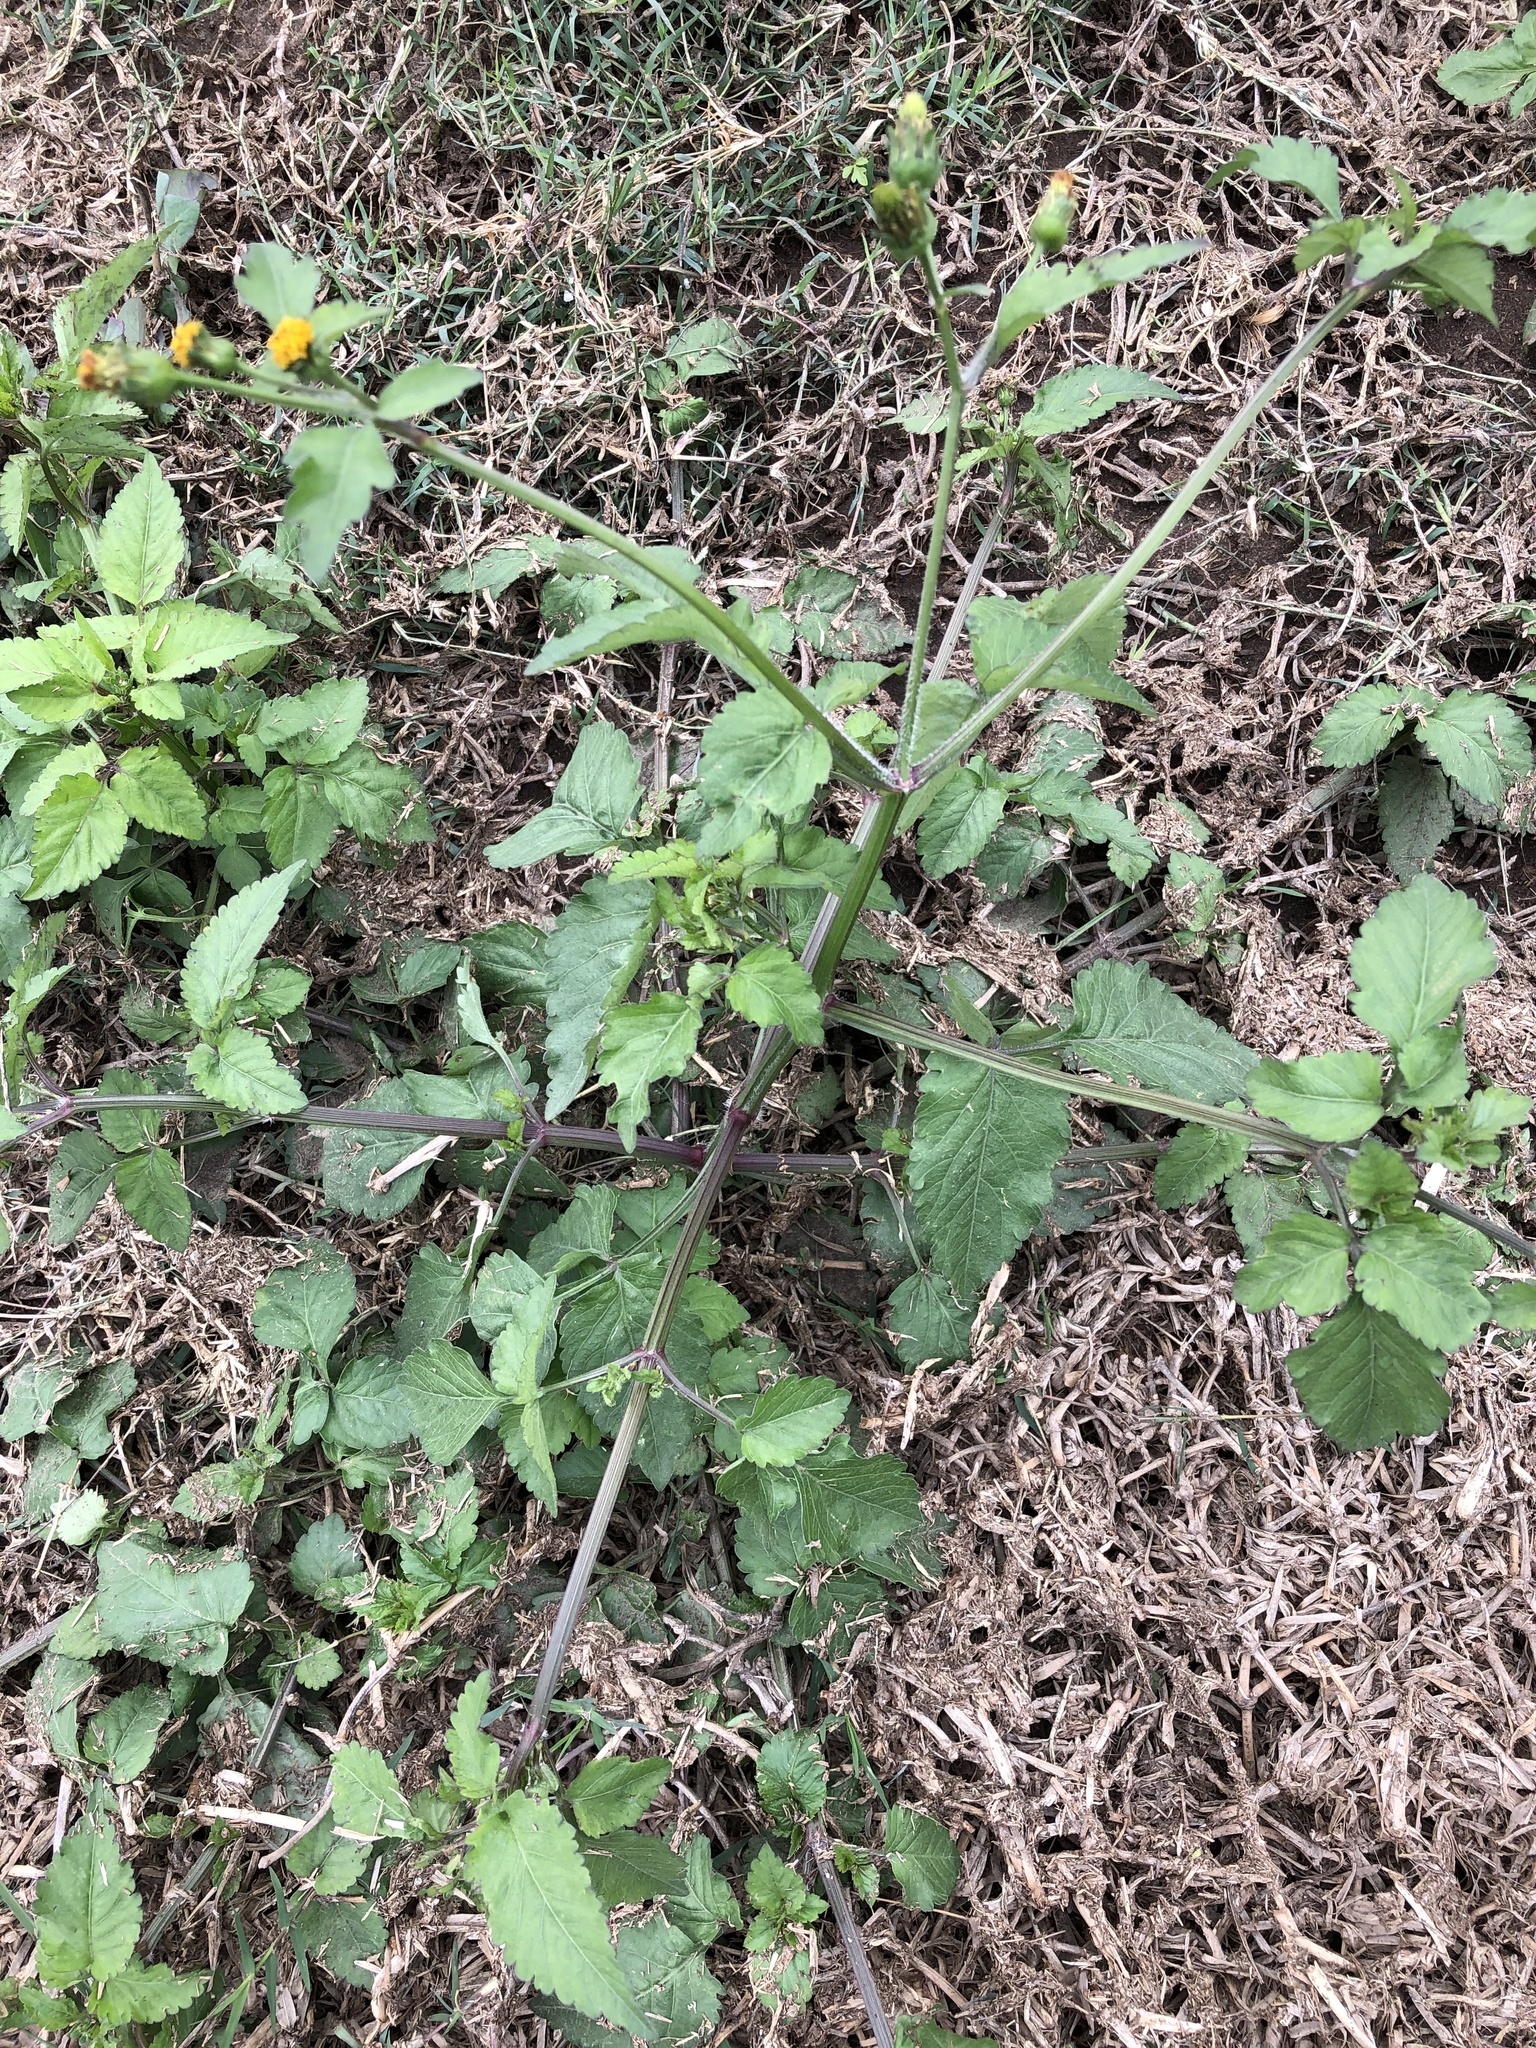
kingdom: Plantae
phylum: Tracheophyta
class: Magnoliopsida
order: Asterales
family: Asteraceae
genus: Bidens
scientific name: Bidens pilosa
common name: Black-jack
